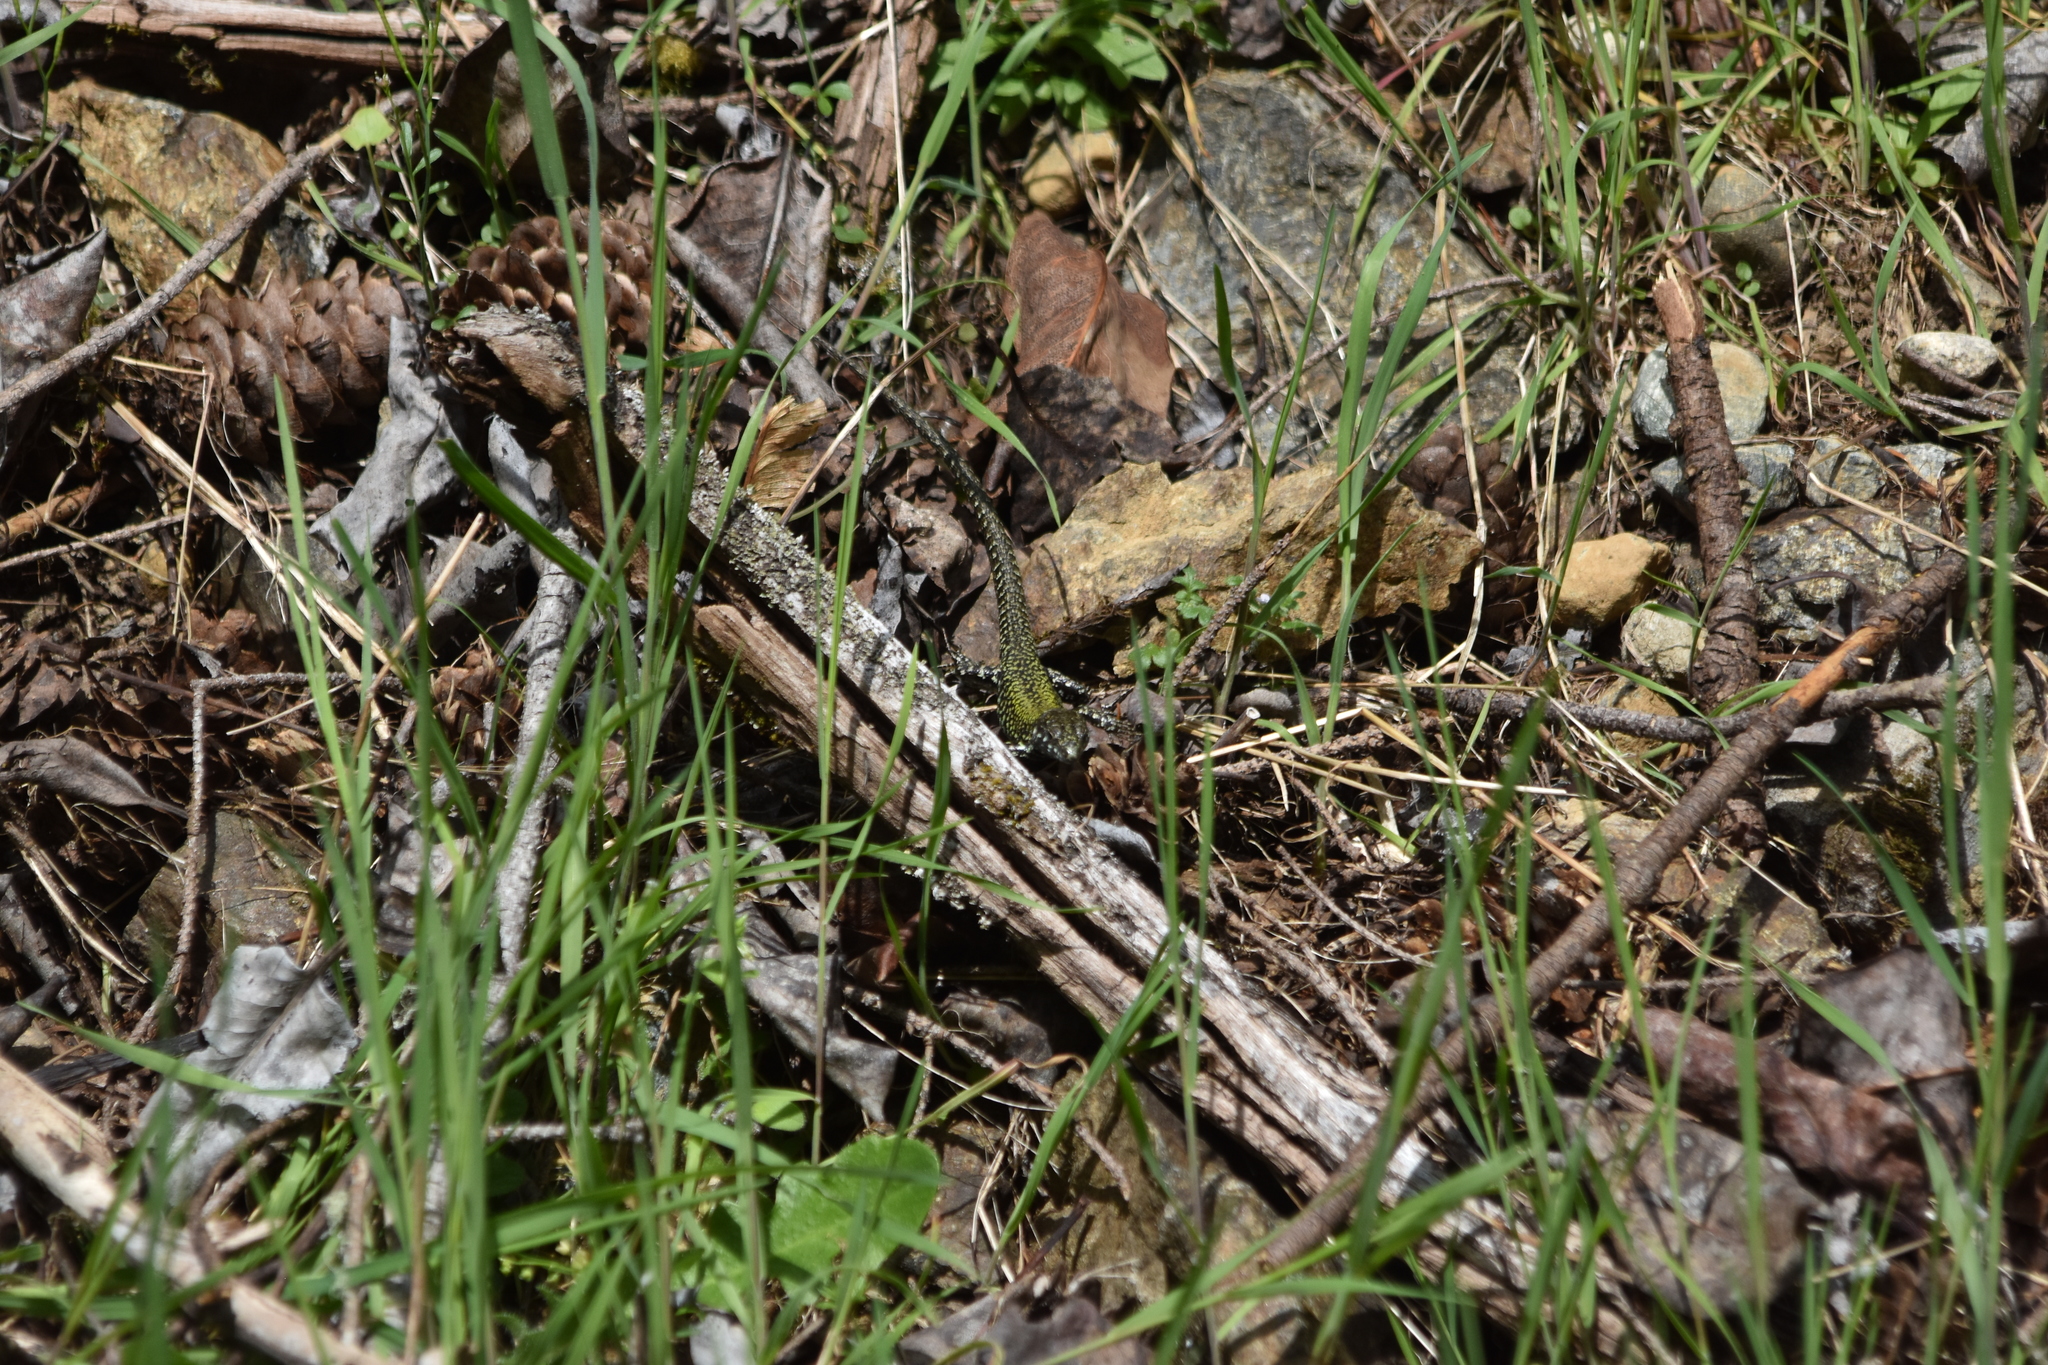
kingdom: Animalia
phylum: Chordata
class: Squamata
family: Lacertidae
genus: Podarcis
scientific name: Podarcis muralis
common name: Common wall lizard
